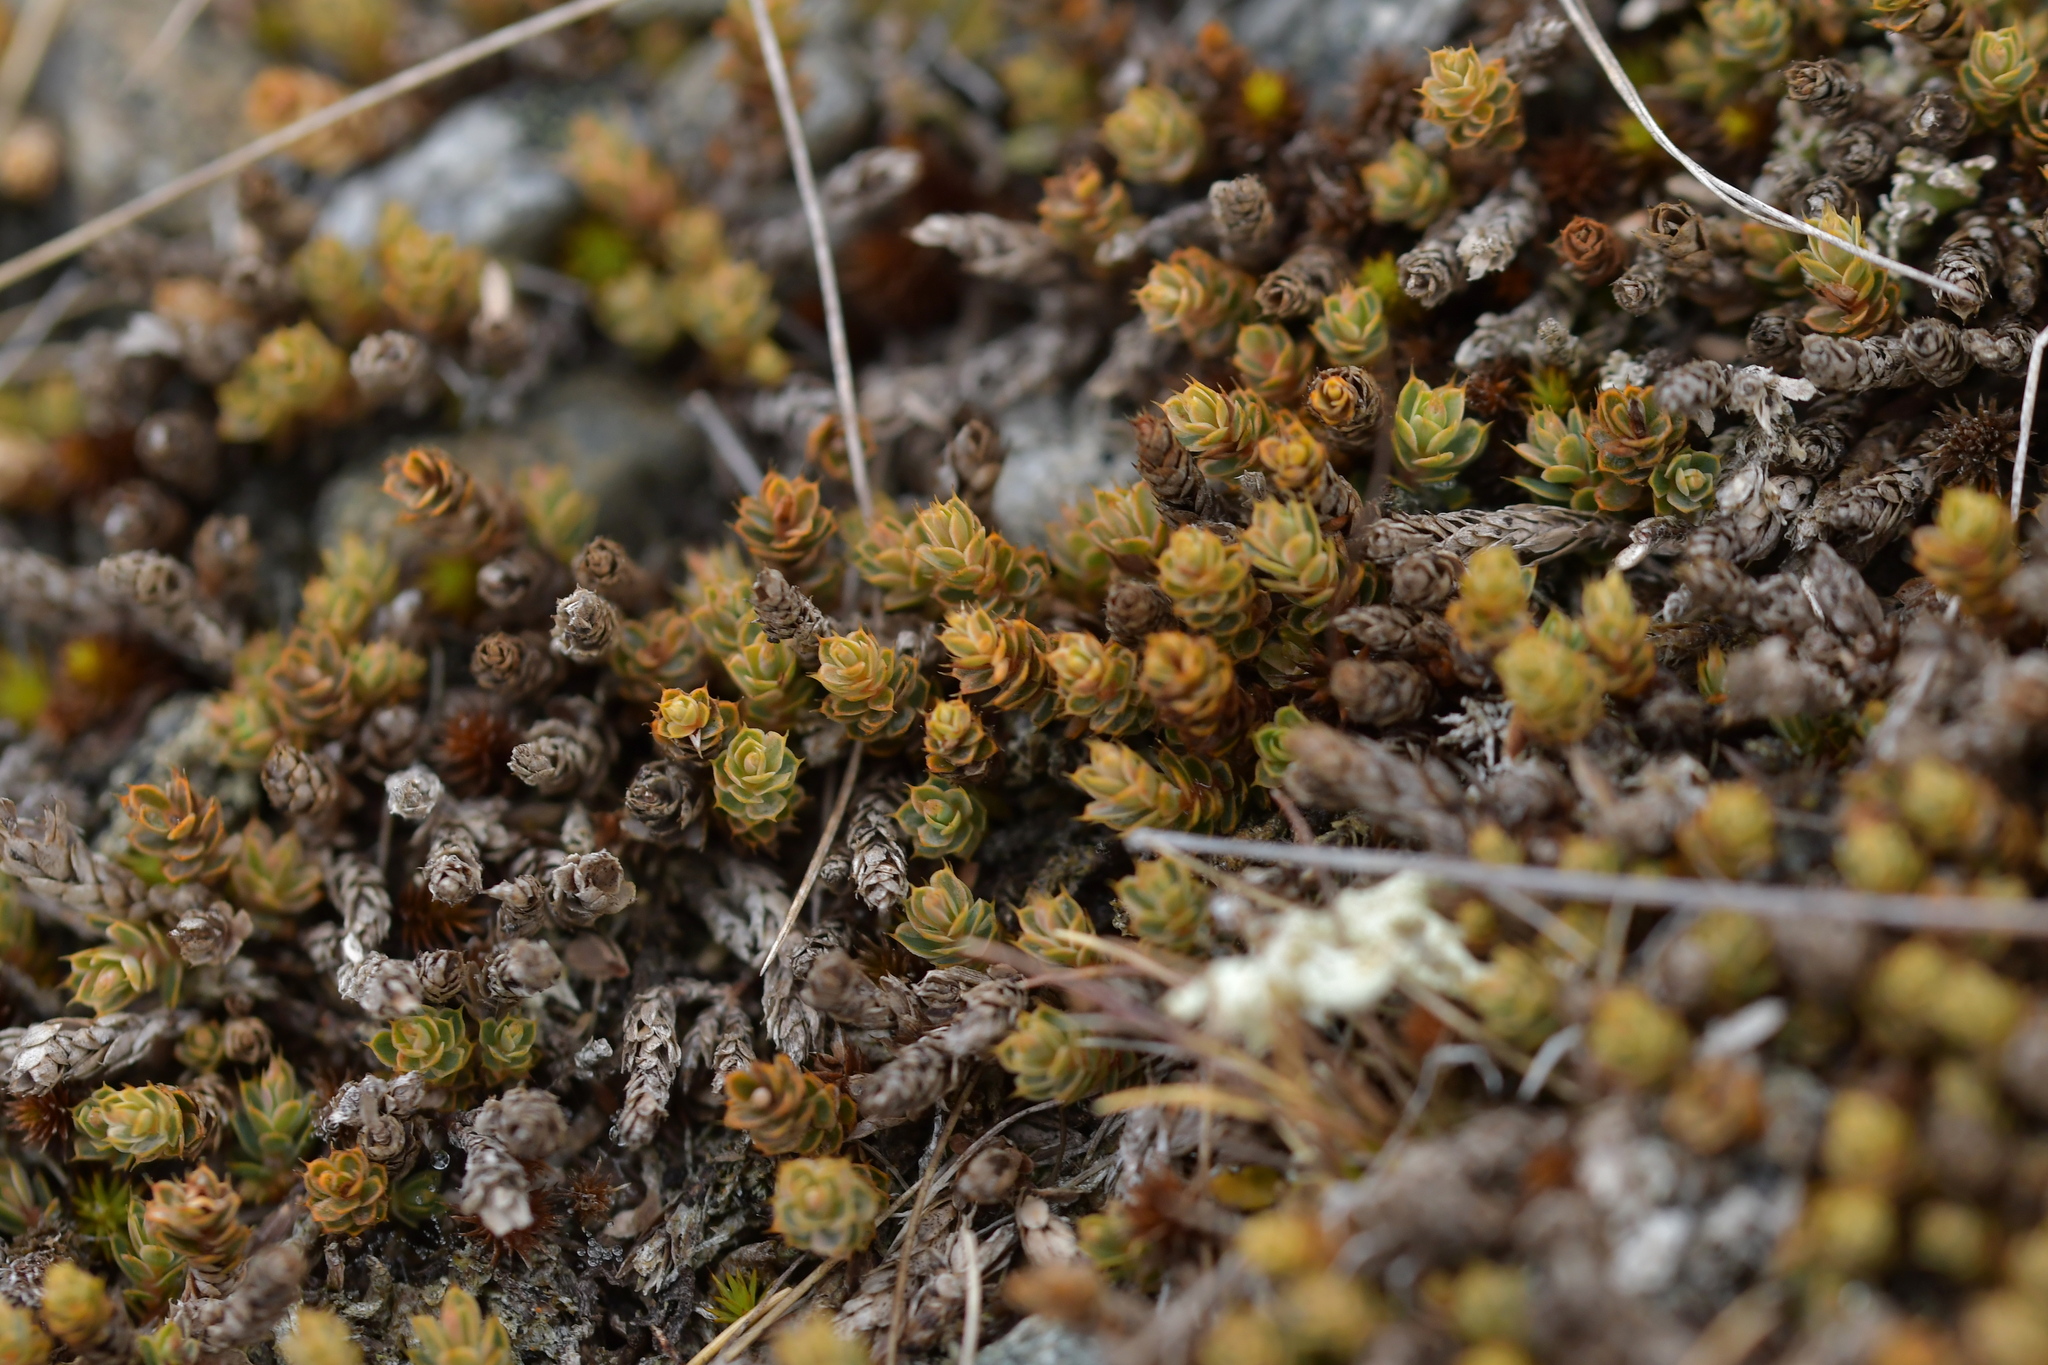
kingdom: Plantae
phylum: Tracheophyta
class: Magnoliopsida
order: Ericales
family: Ericaceae
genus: Styphelia
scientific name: Styphelia nesophila
